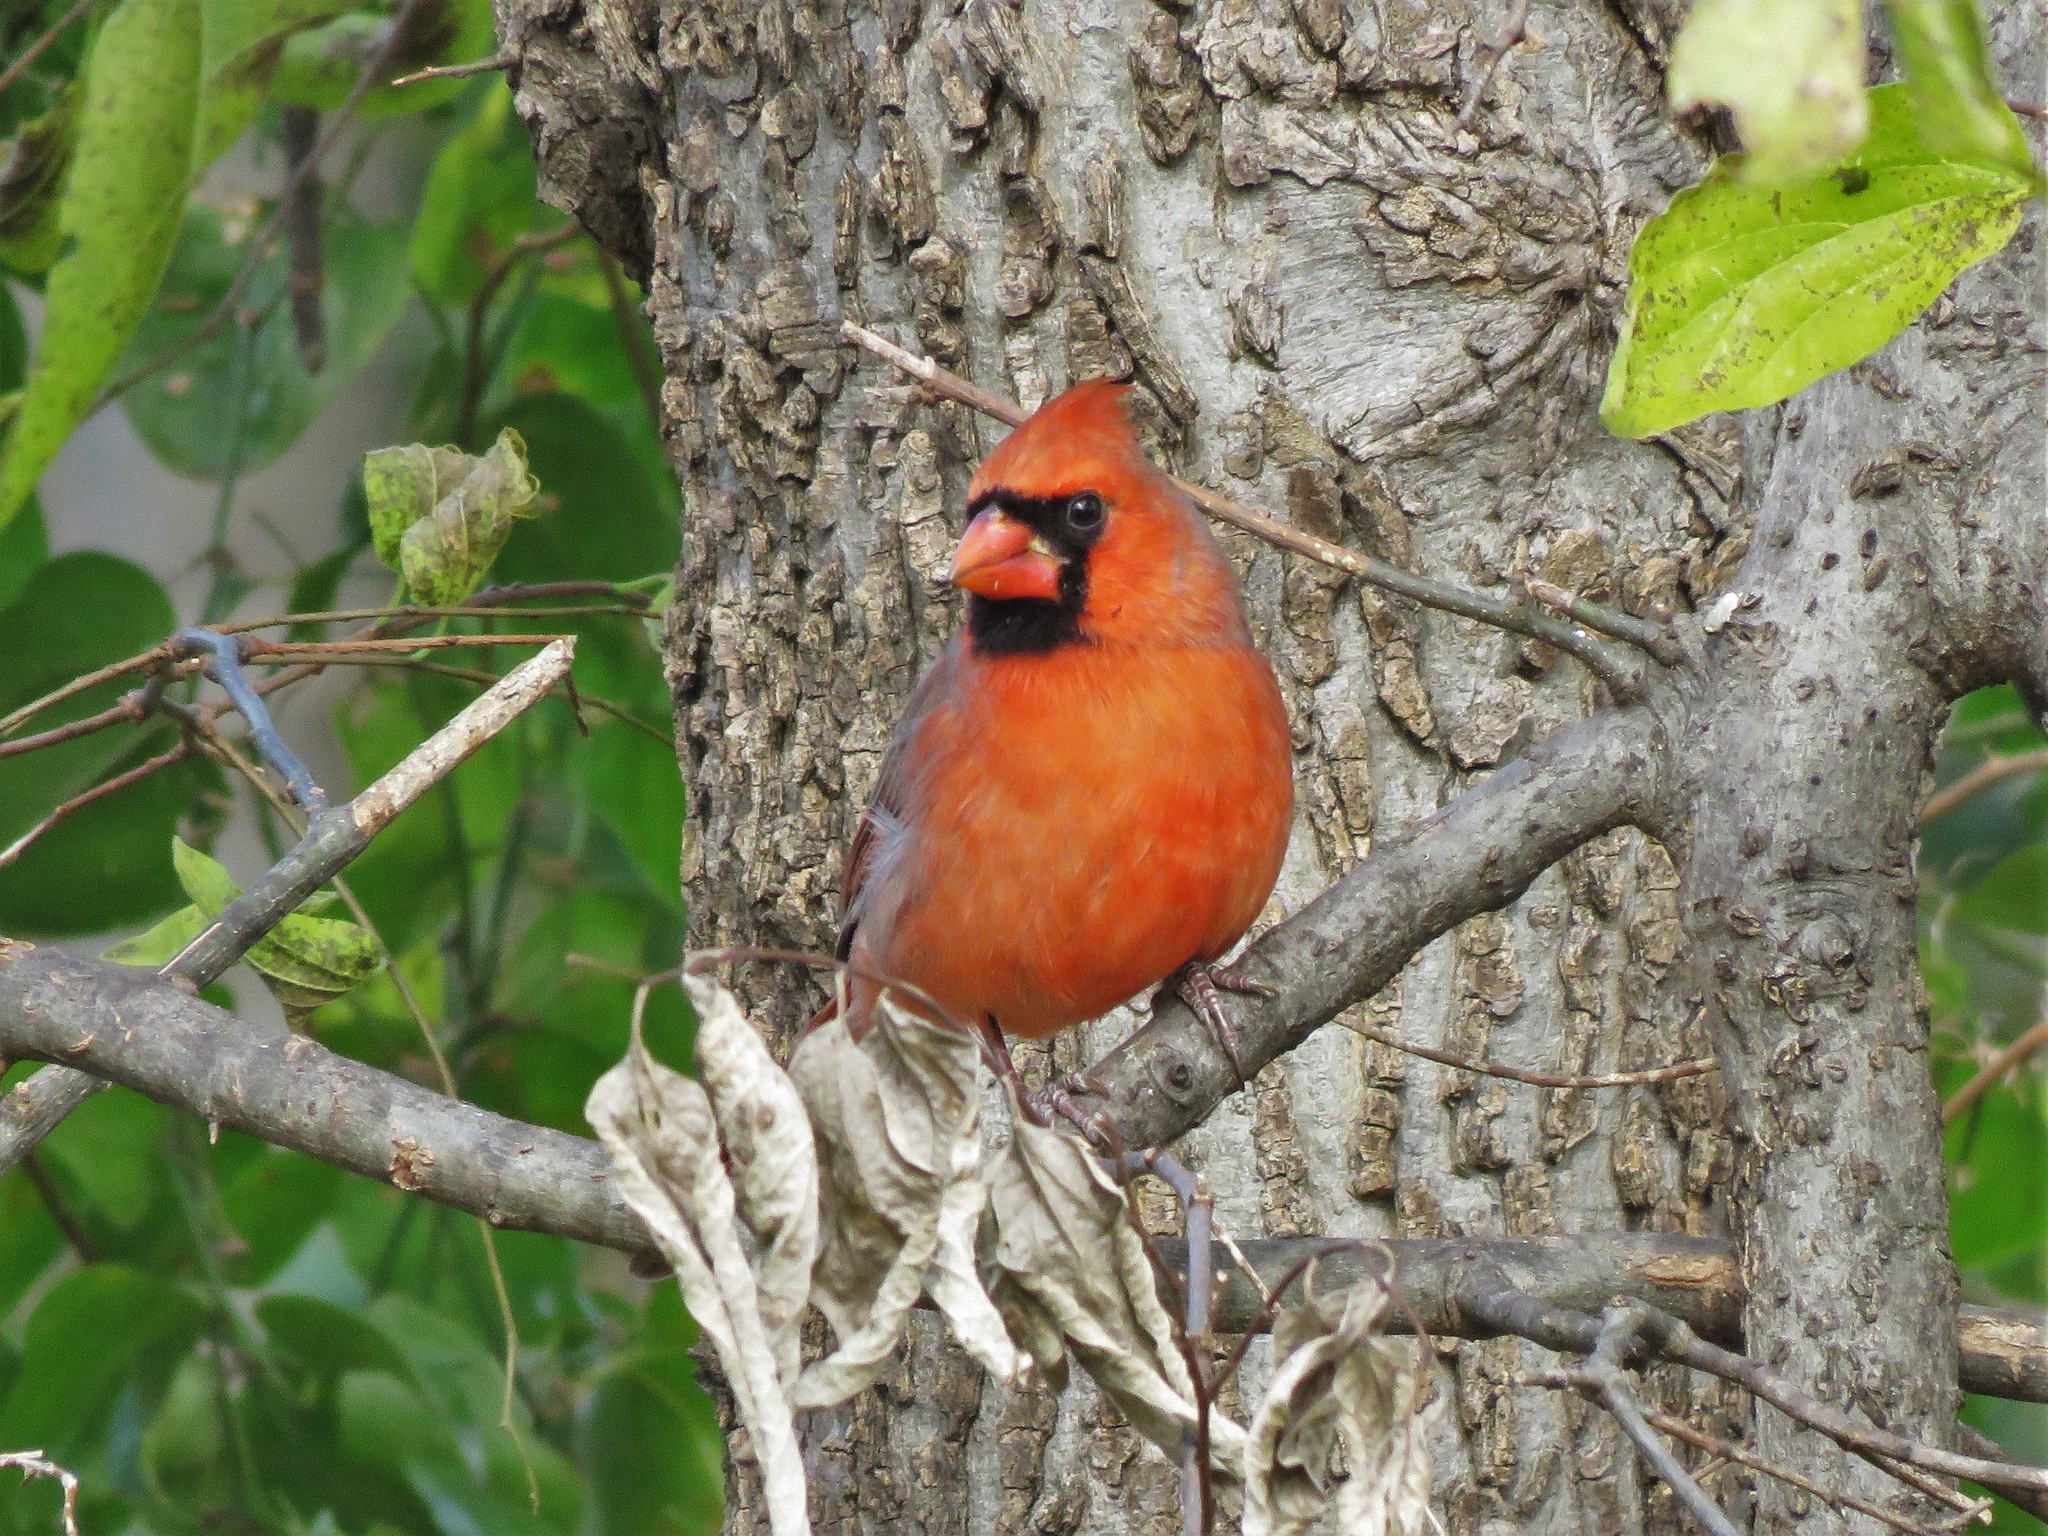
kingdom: Animalia
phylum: Chordata
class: Aves
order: Passeriformes
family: Cardinalidae
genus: Cardinalis
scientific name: Cardinalis cardinalis
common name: Northern cardinal
